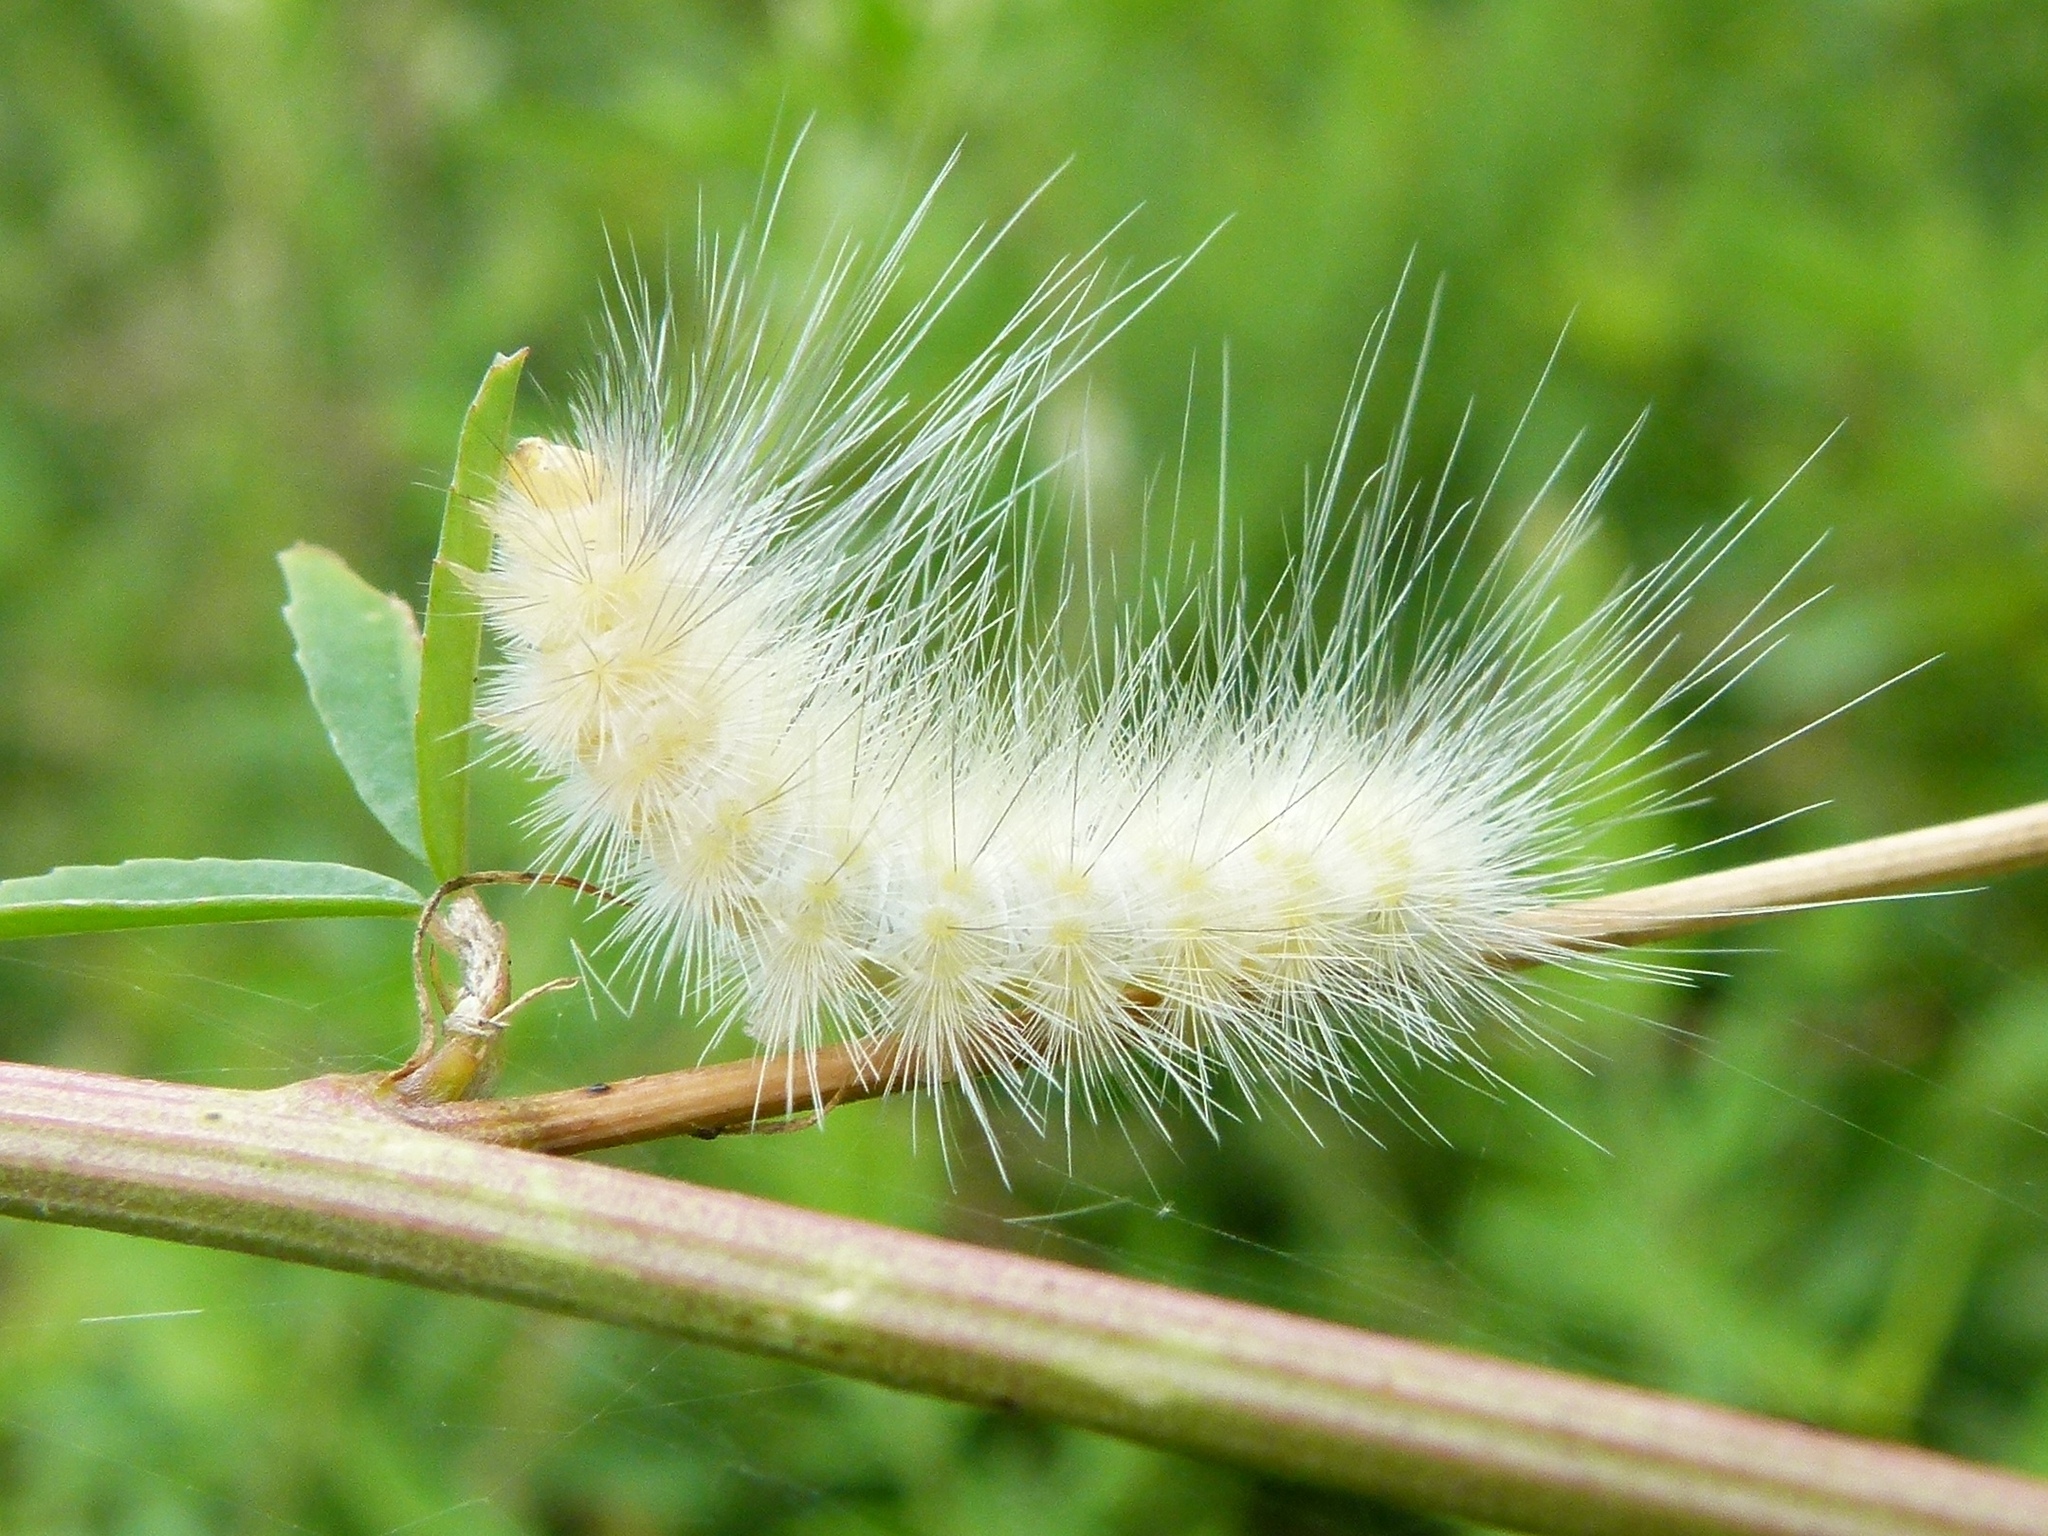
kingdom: Animalia
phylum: Arthropoda
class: Insecta
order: Lepidoptera
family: Erebidae
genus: Spilosoma
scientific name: Spilosoma virginica
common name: Virginia tiger moth
